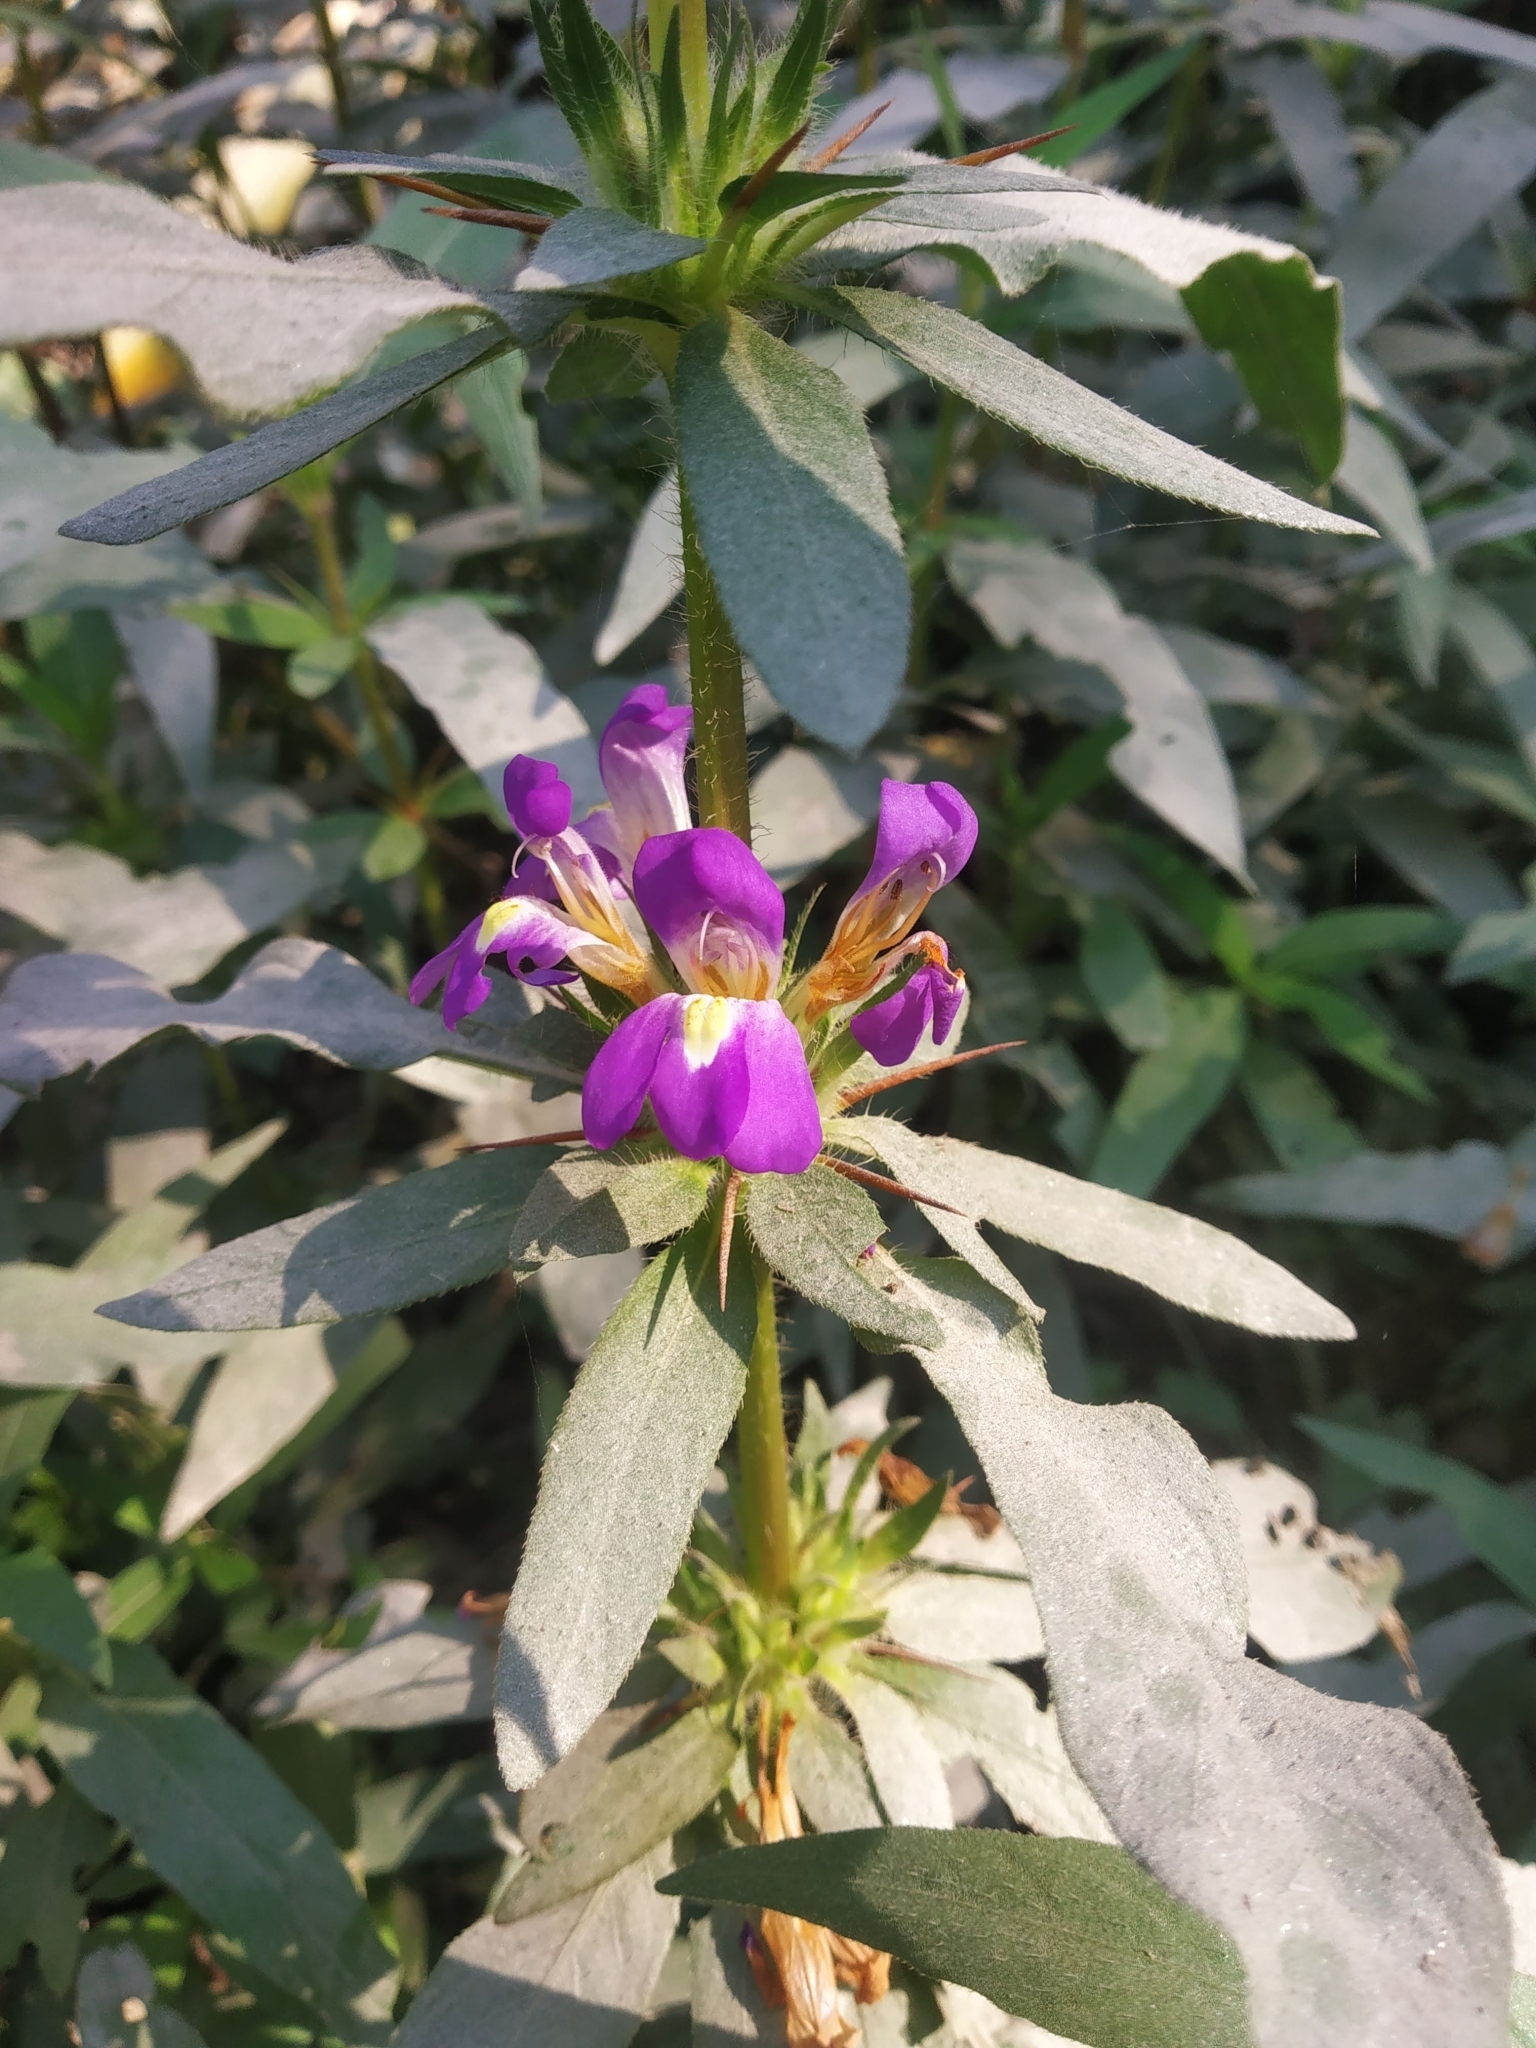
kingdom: Plantae
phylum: Tracheophyta
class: Magnoliopsida
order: Lamiales
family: Acanthaceae
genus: Hygrophila
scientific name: Hygrophila auriculata
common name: Hygrophila
